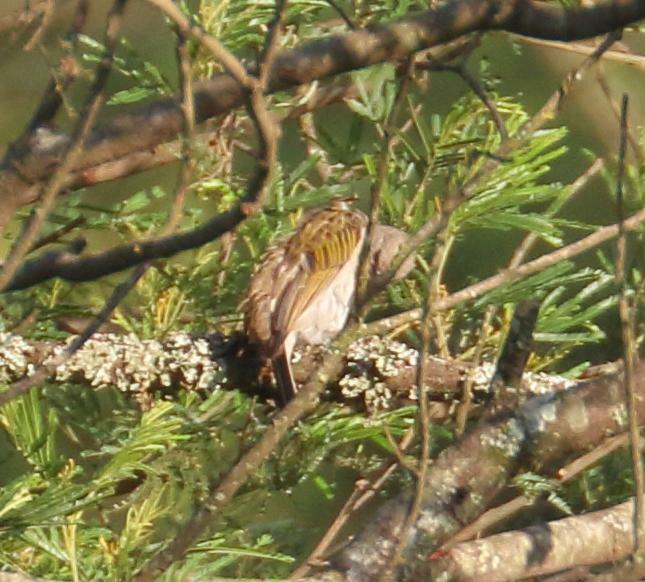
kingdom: Animalia
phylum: Chordata
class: Aves
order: Piciformes
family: Indicatoridae
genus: Indicator
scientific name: Indicator minor
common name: Lesser honeyguide
